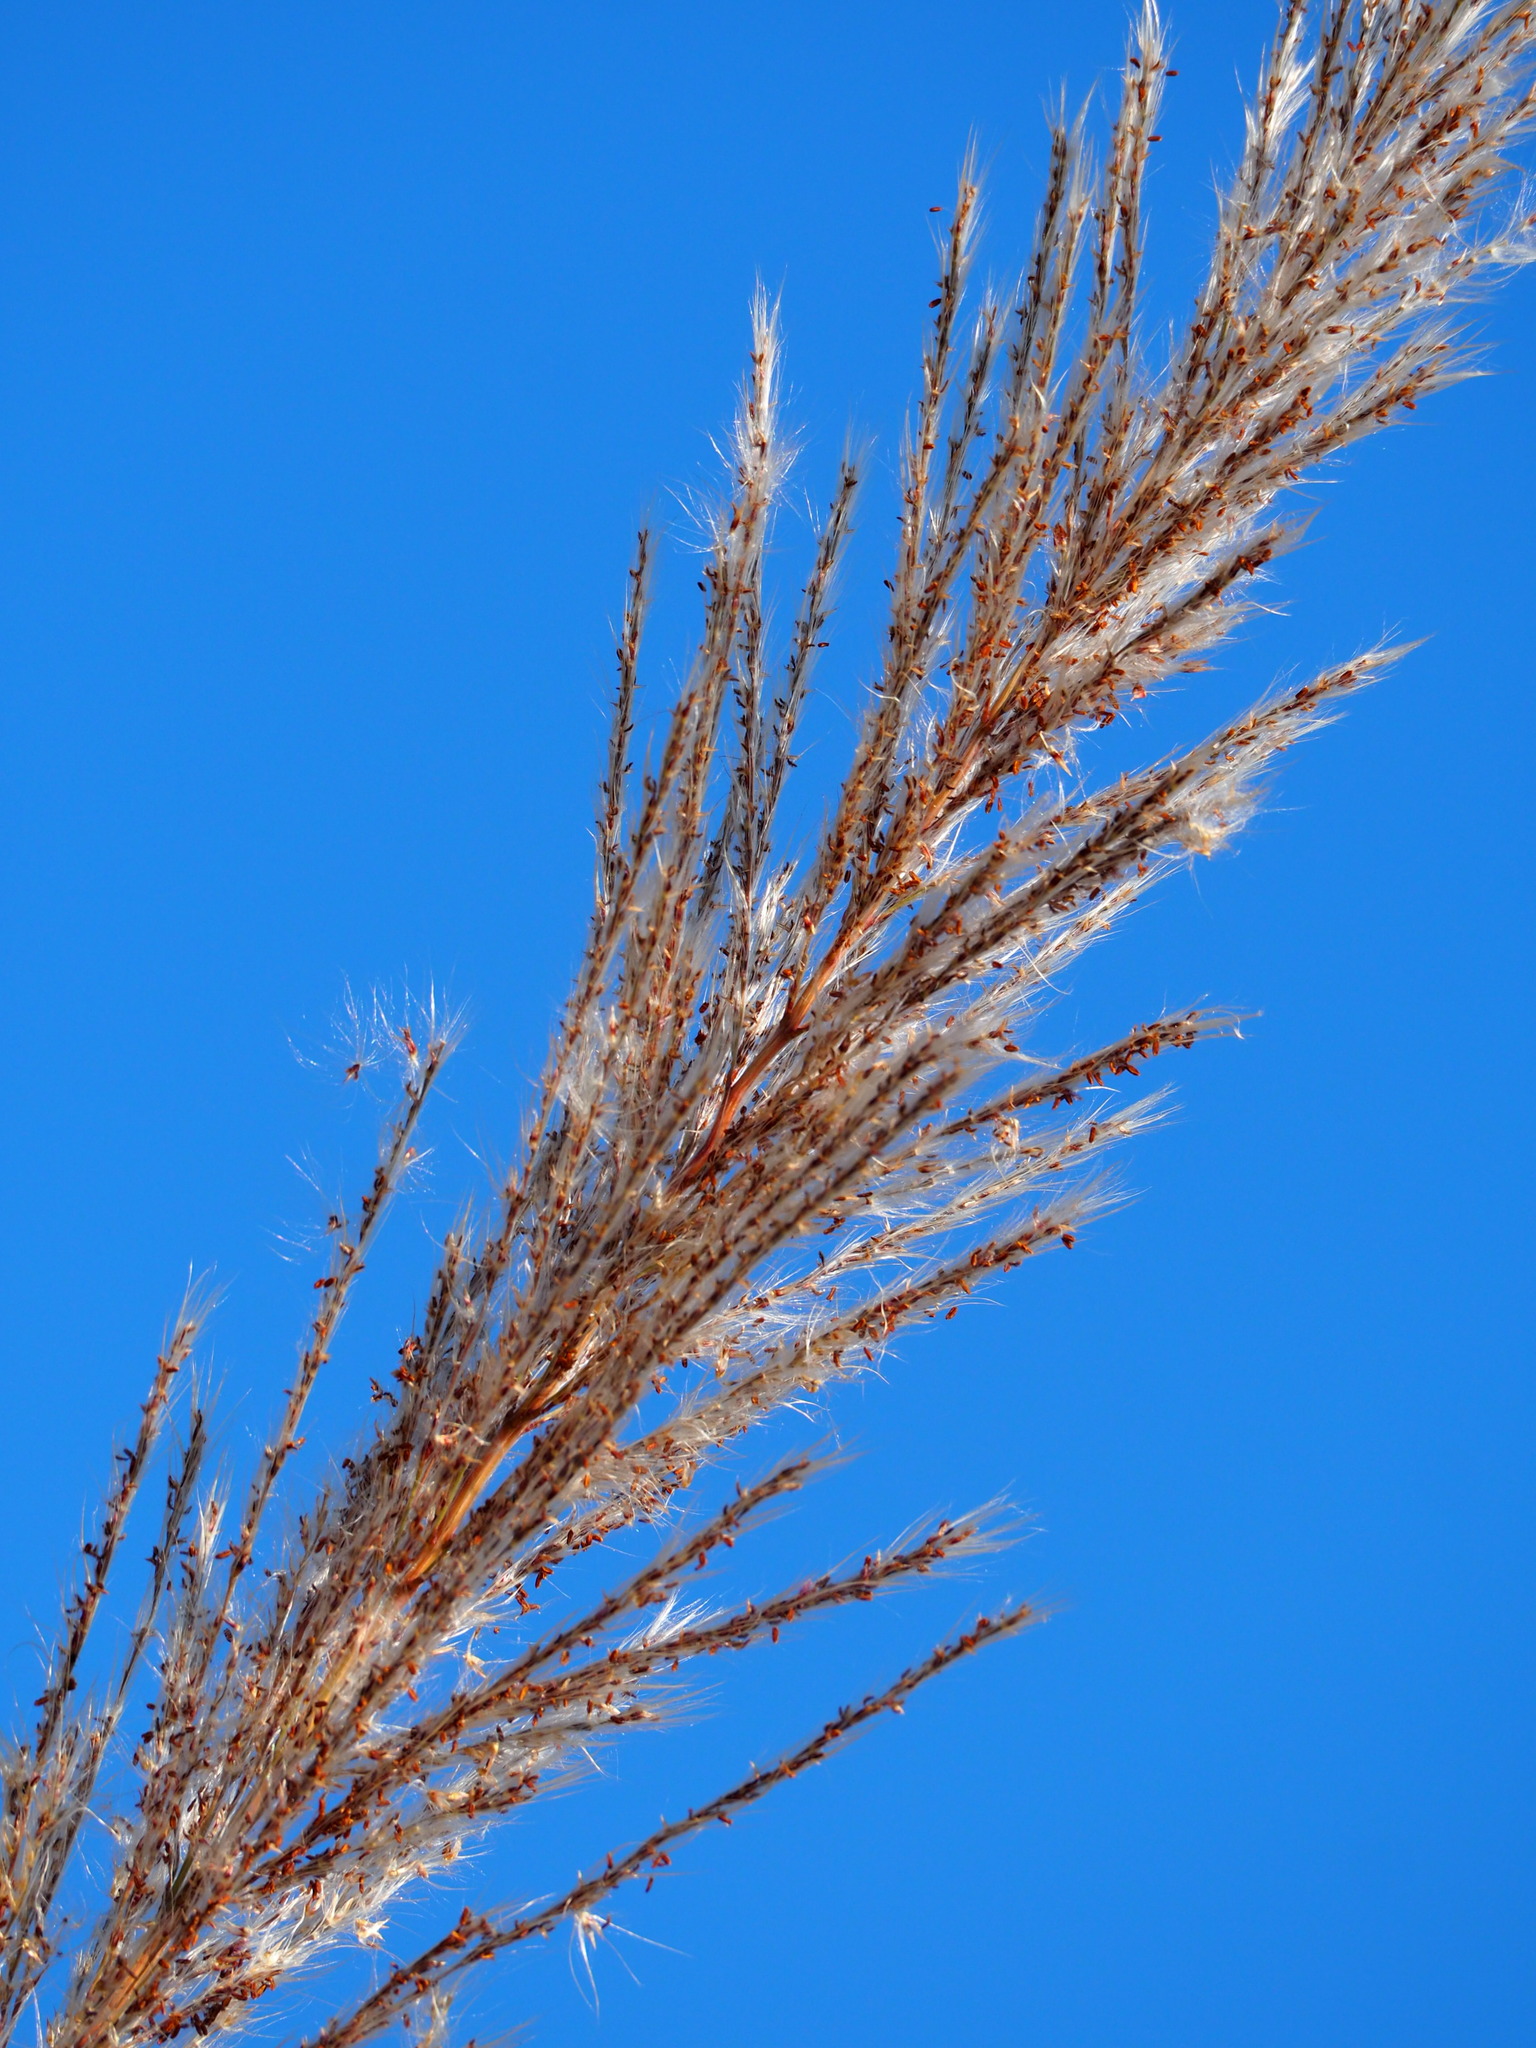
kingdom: Plantae
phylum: Tracheophyta
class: Liliopsida
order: Poales
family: Poaceae
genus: Saccharum
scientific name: Saccharum spontaneum
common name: Wild sugarcane
